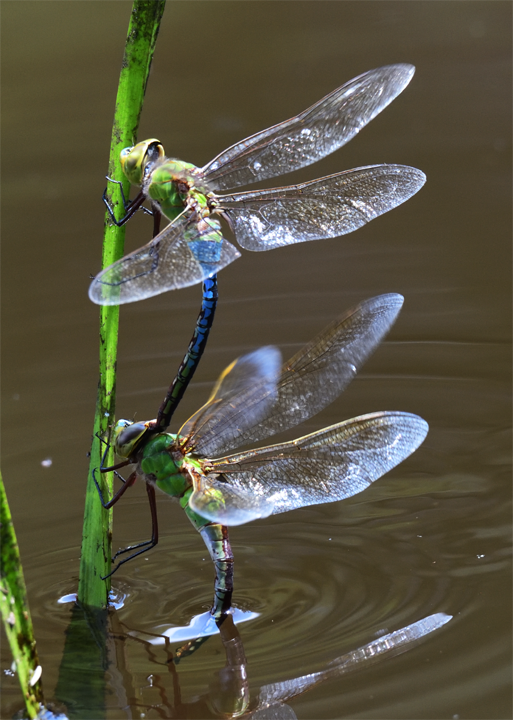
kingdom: Animalia
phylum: Arthropoda
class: Insecta
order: Odonata
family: Aeshnidae
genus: Anax
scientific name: Anax junius
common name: Common green darner
